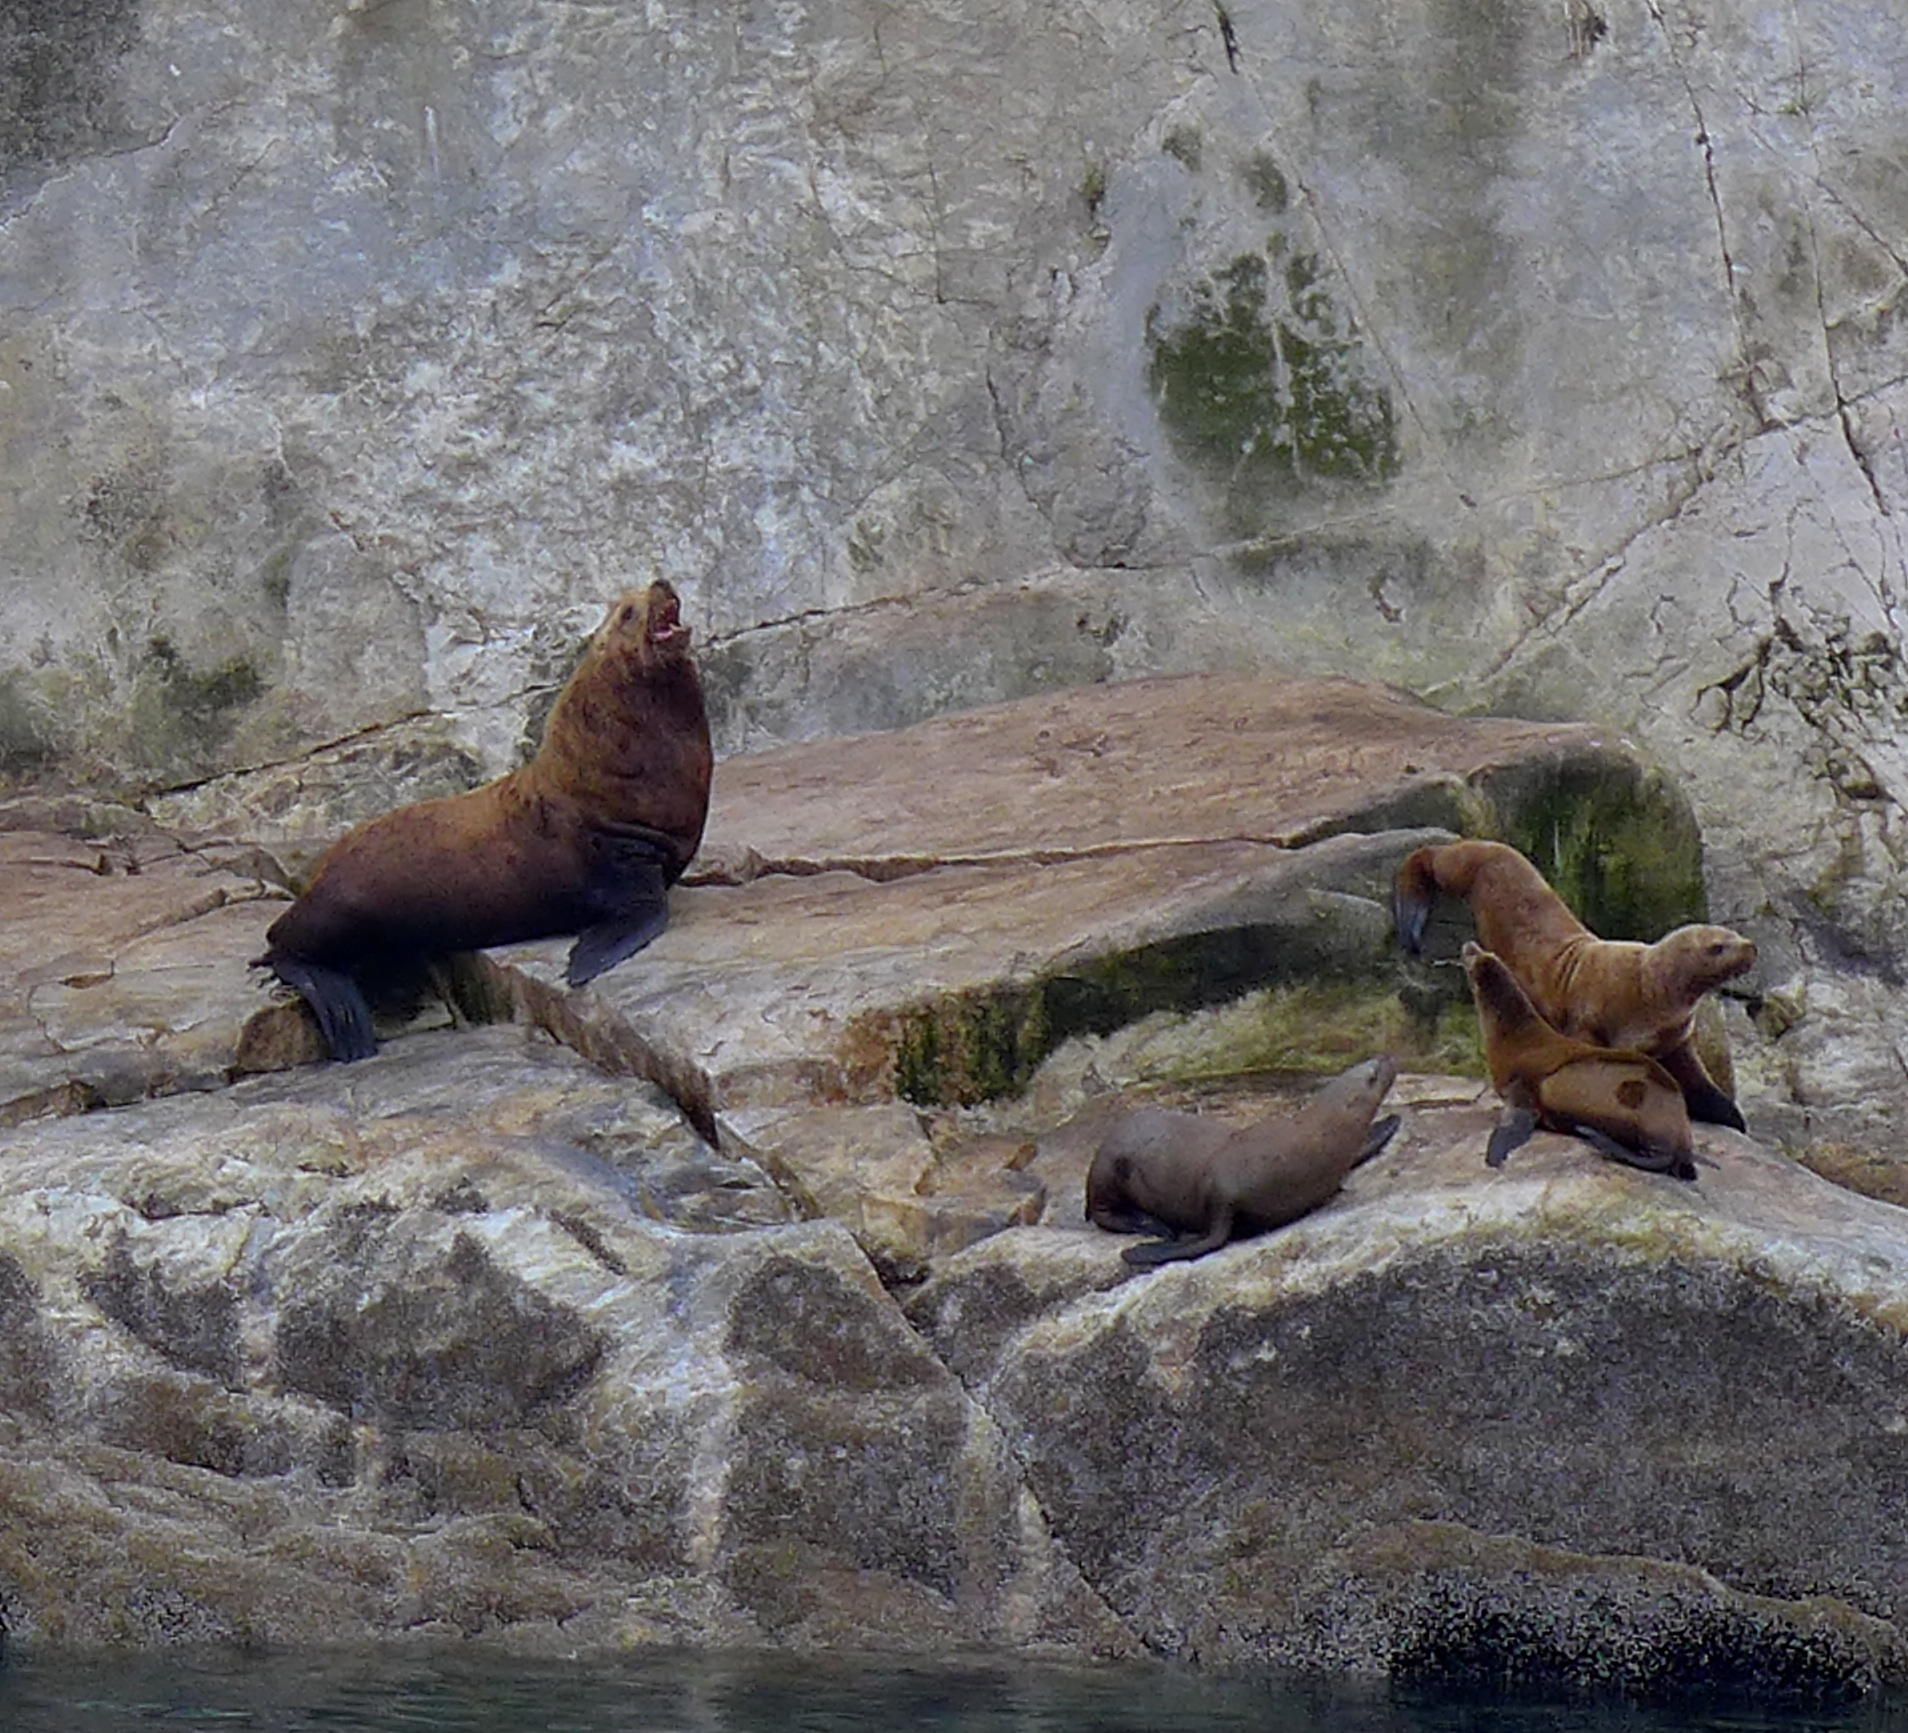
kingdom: Animalia
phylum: Chordata
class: Mammalia
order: Carnivora
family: Otariidae
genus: Eumetopias
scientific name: Eumetopias jubatus
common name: Steller sea lion
